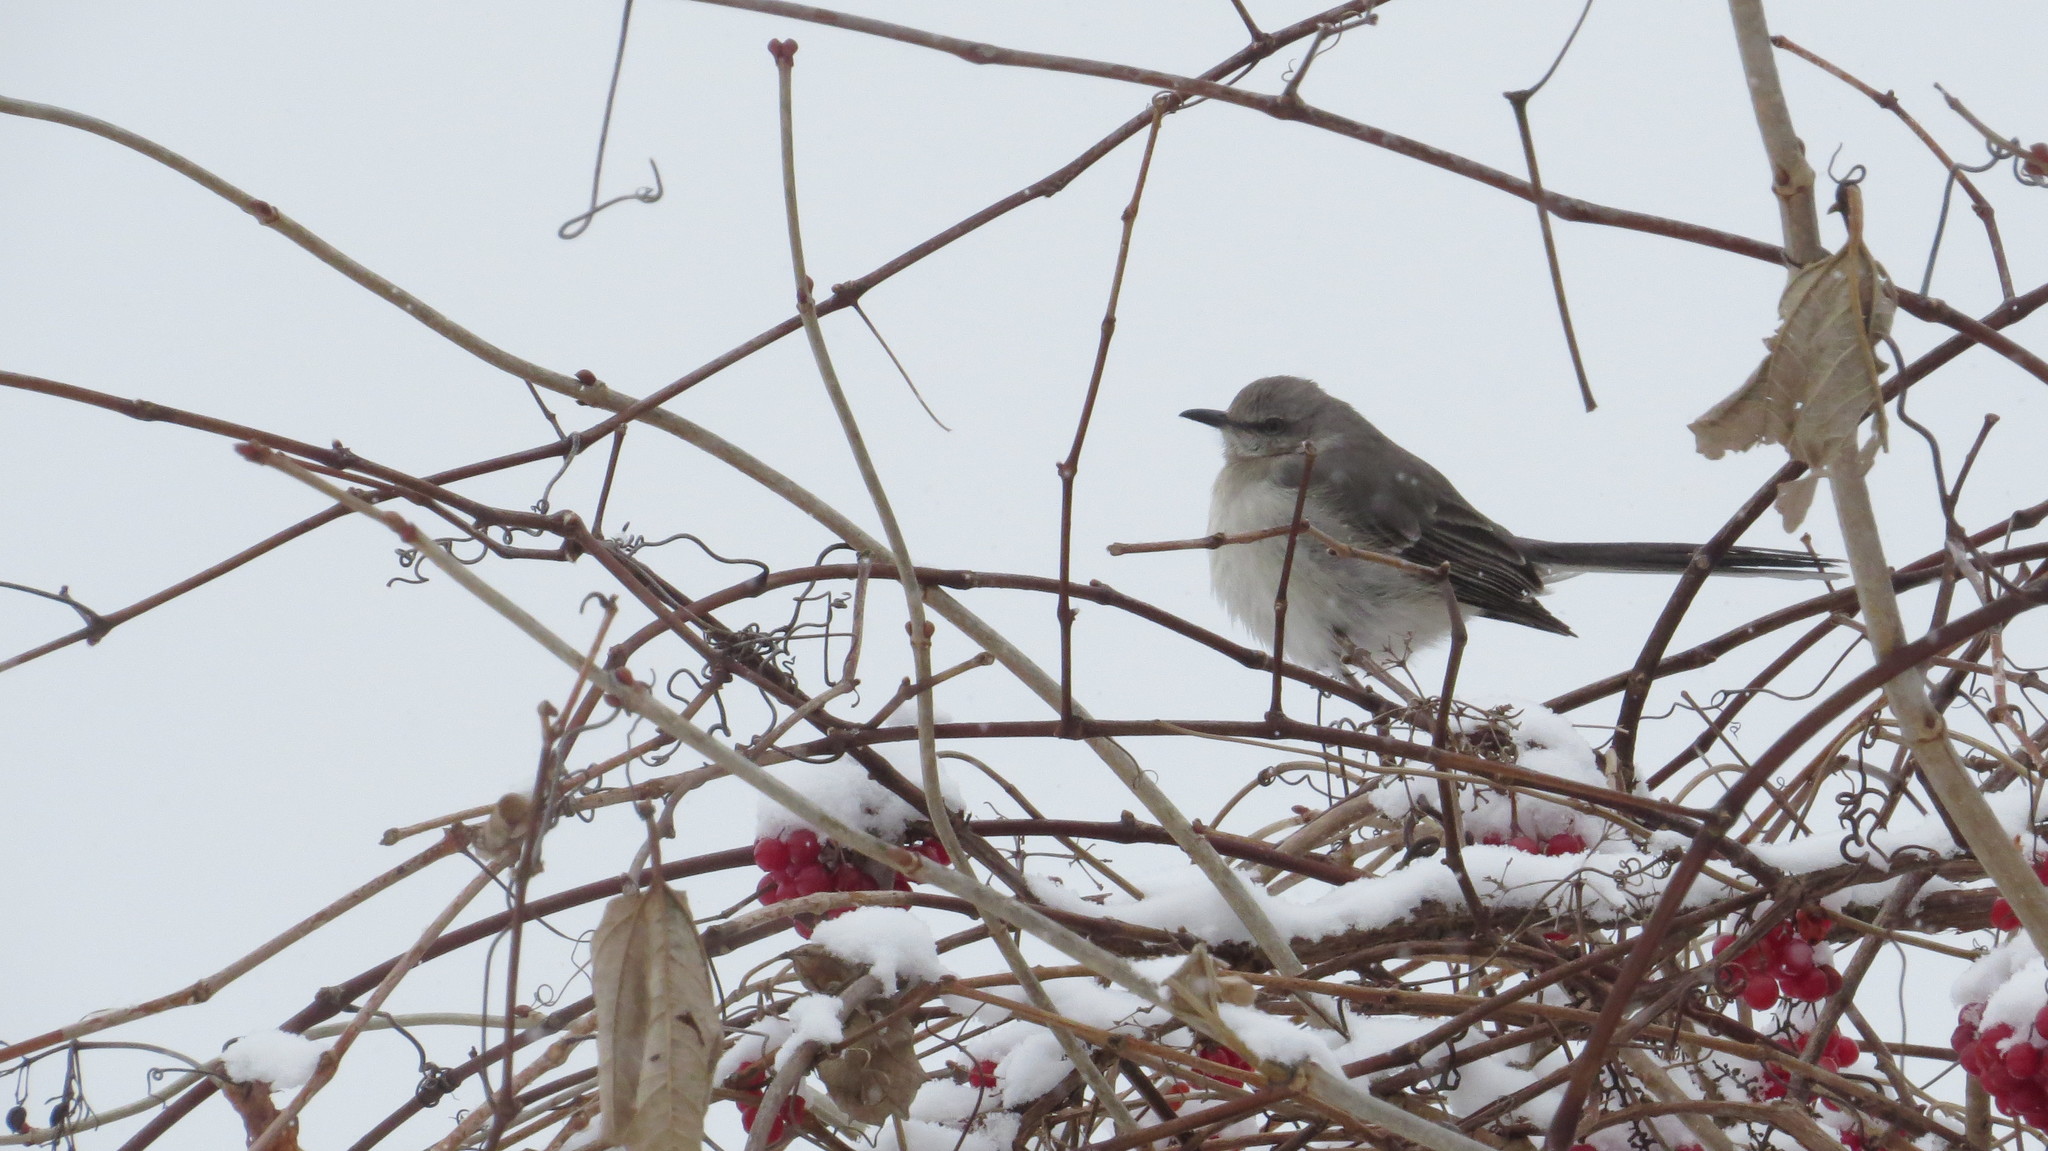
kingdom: Animalia
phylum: Chordata
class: Aves
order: Passeriformes
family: Mimidae
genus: Mimus
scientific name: Mimus polyglottos
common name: Northern mockingbird
